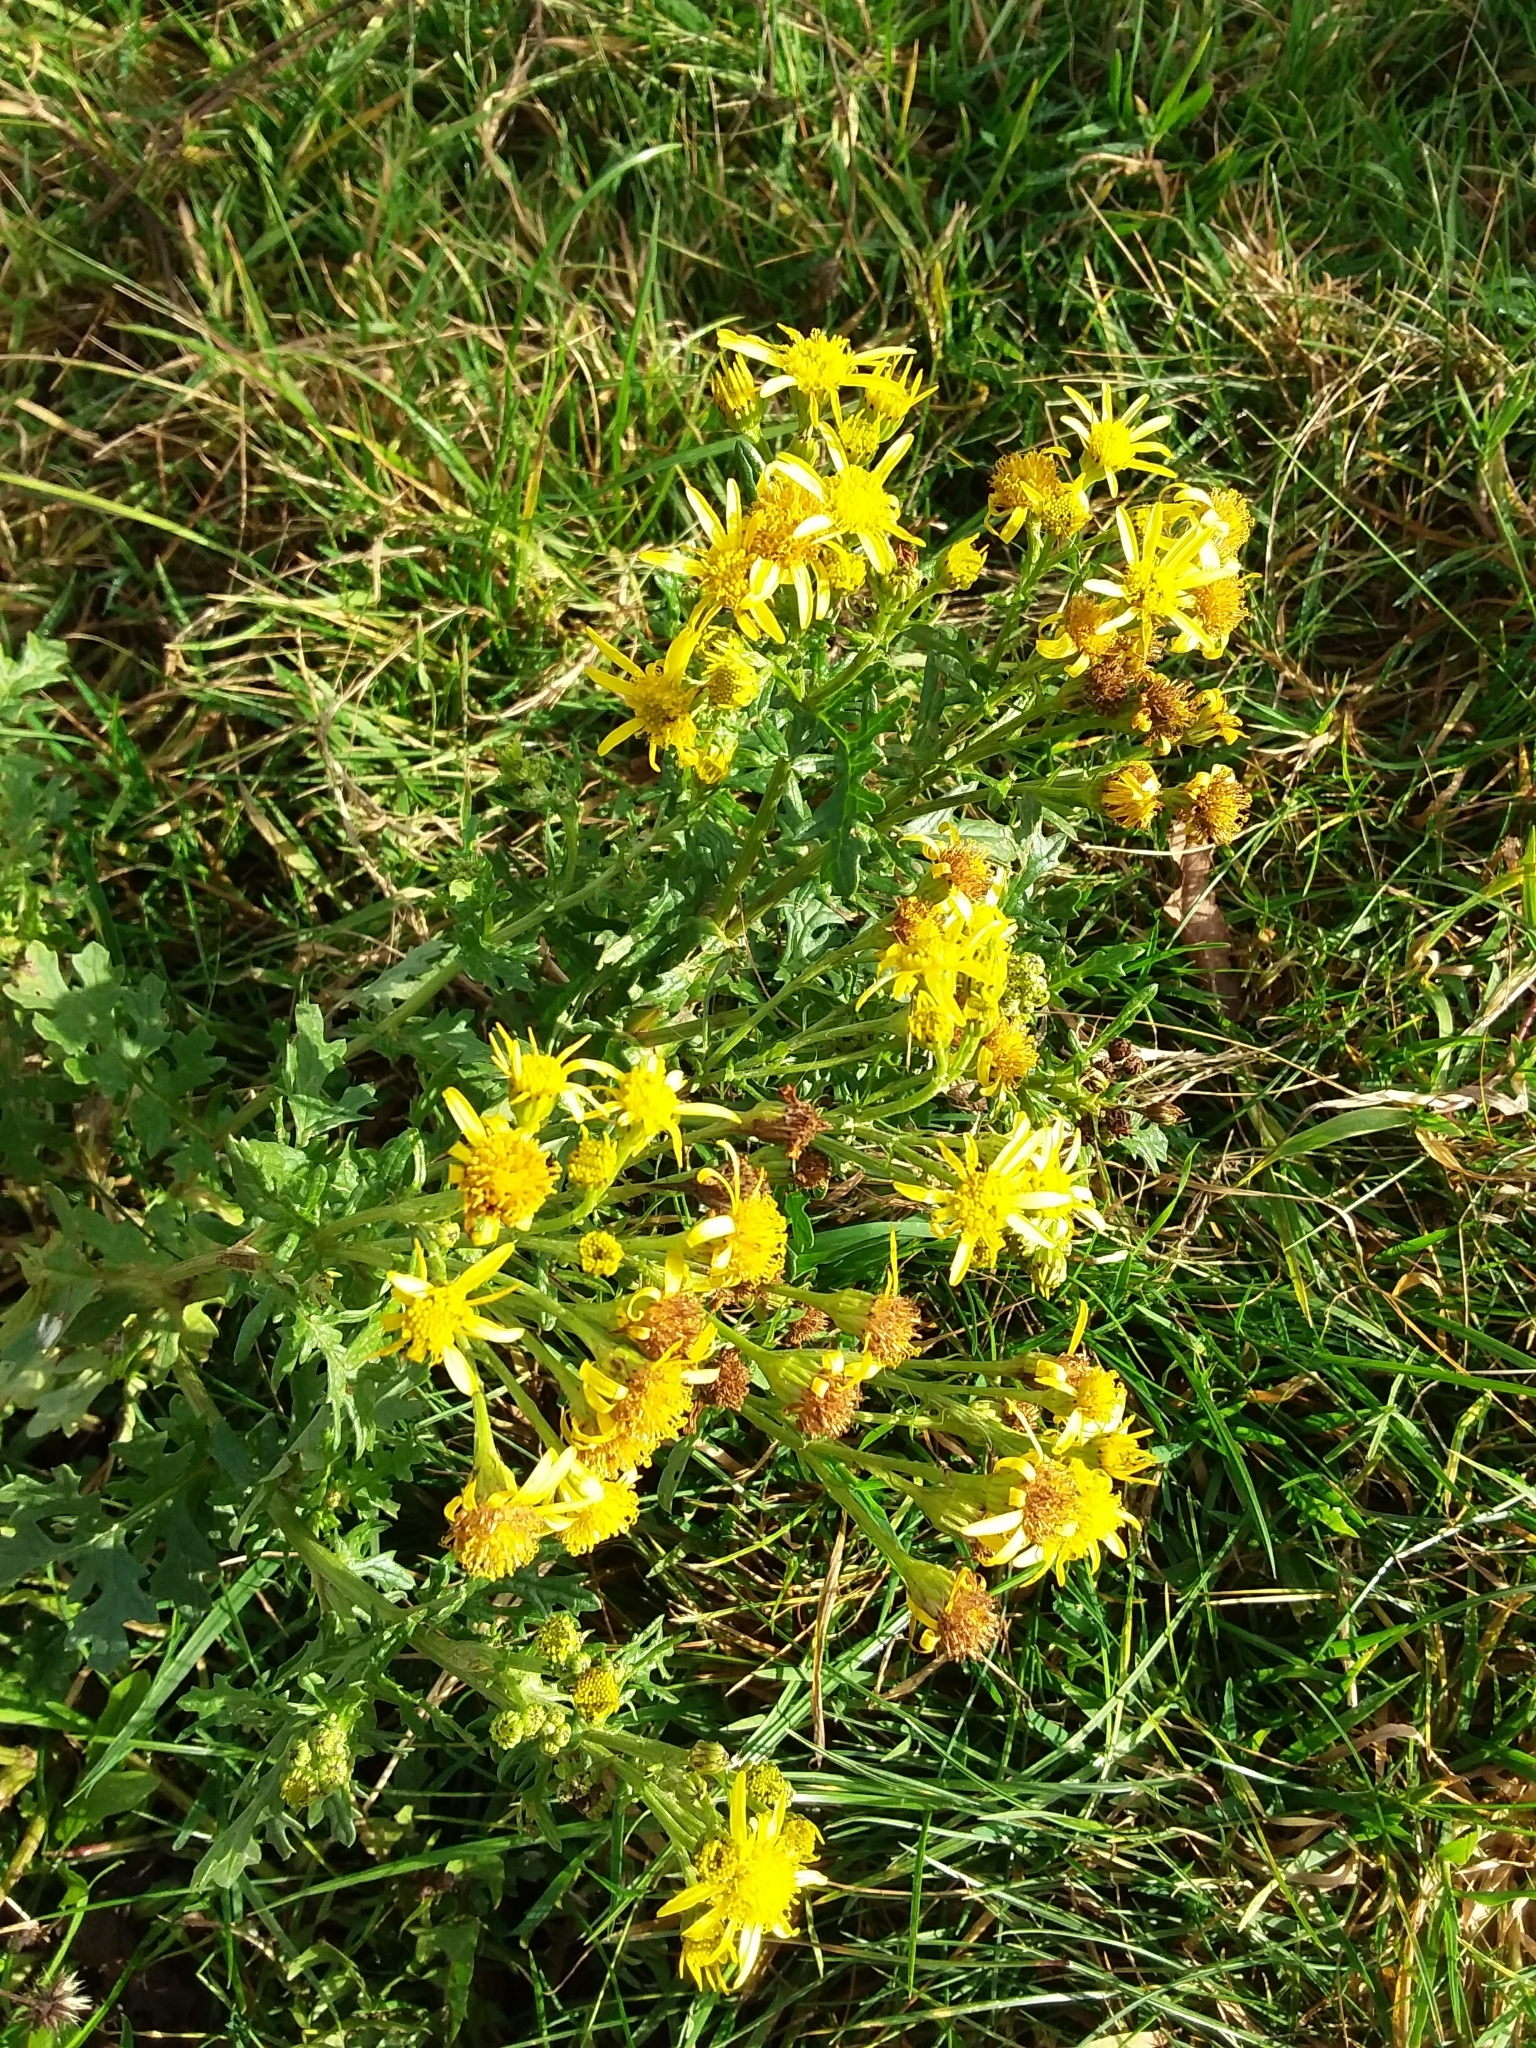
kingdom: Plantae
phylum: Tracheophyta
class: Magnoliopsida
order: Asterales
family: Asteraceae
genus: Jacobaea
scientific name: Jacobaea vulgaris
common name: Stinking willie
